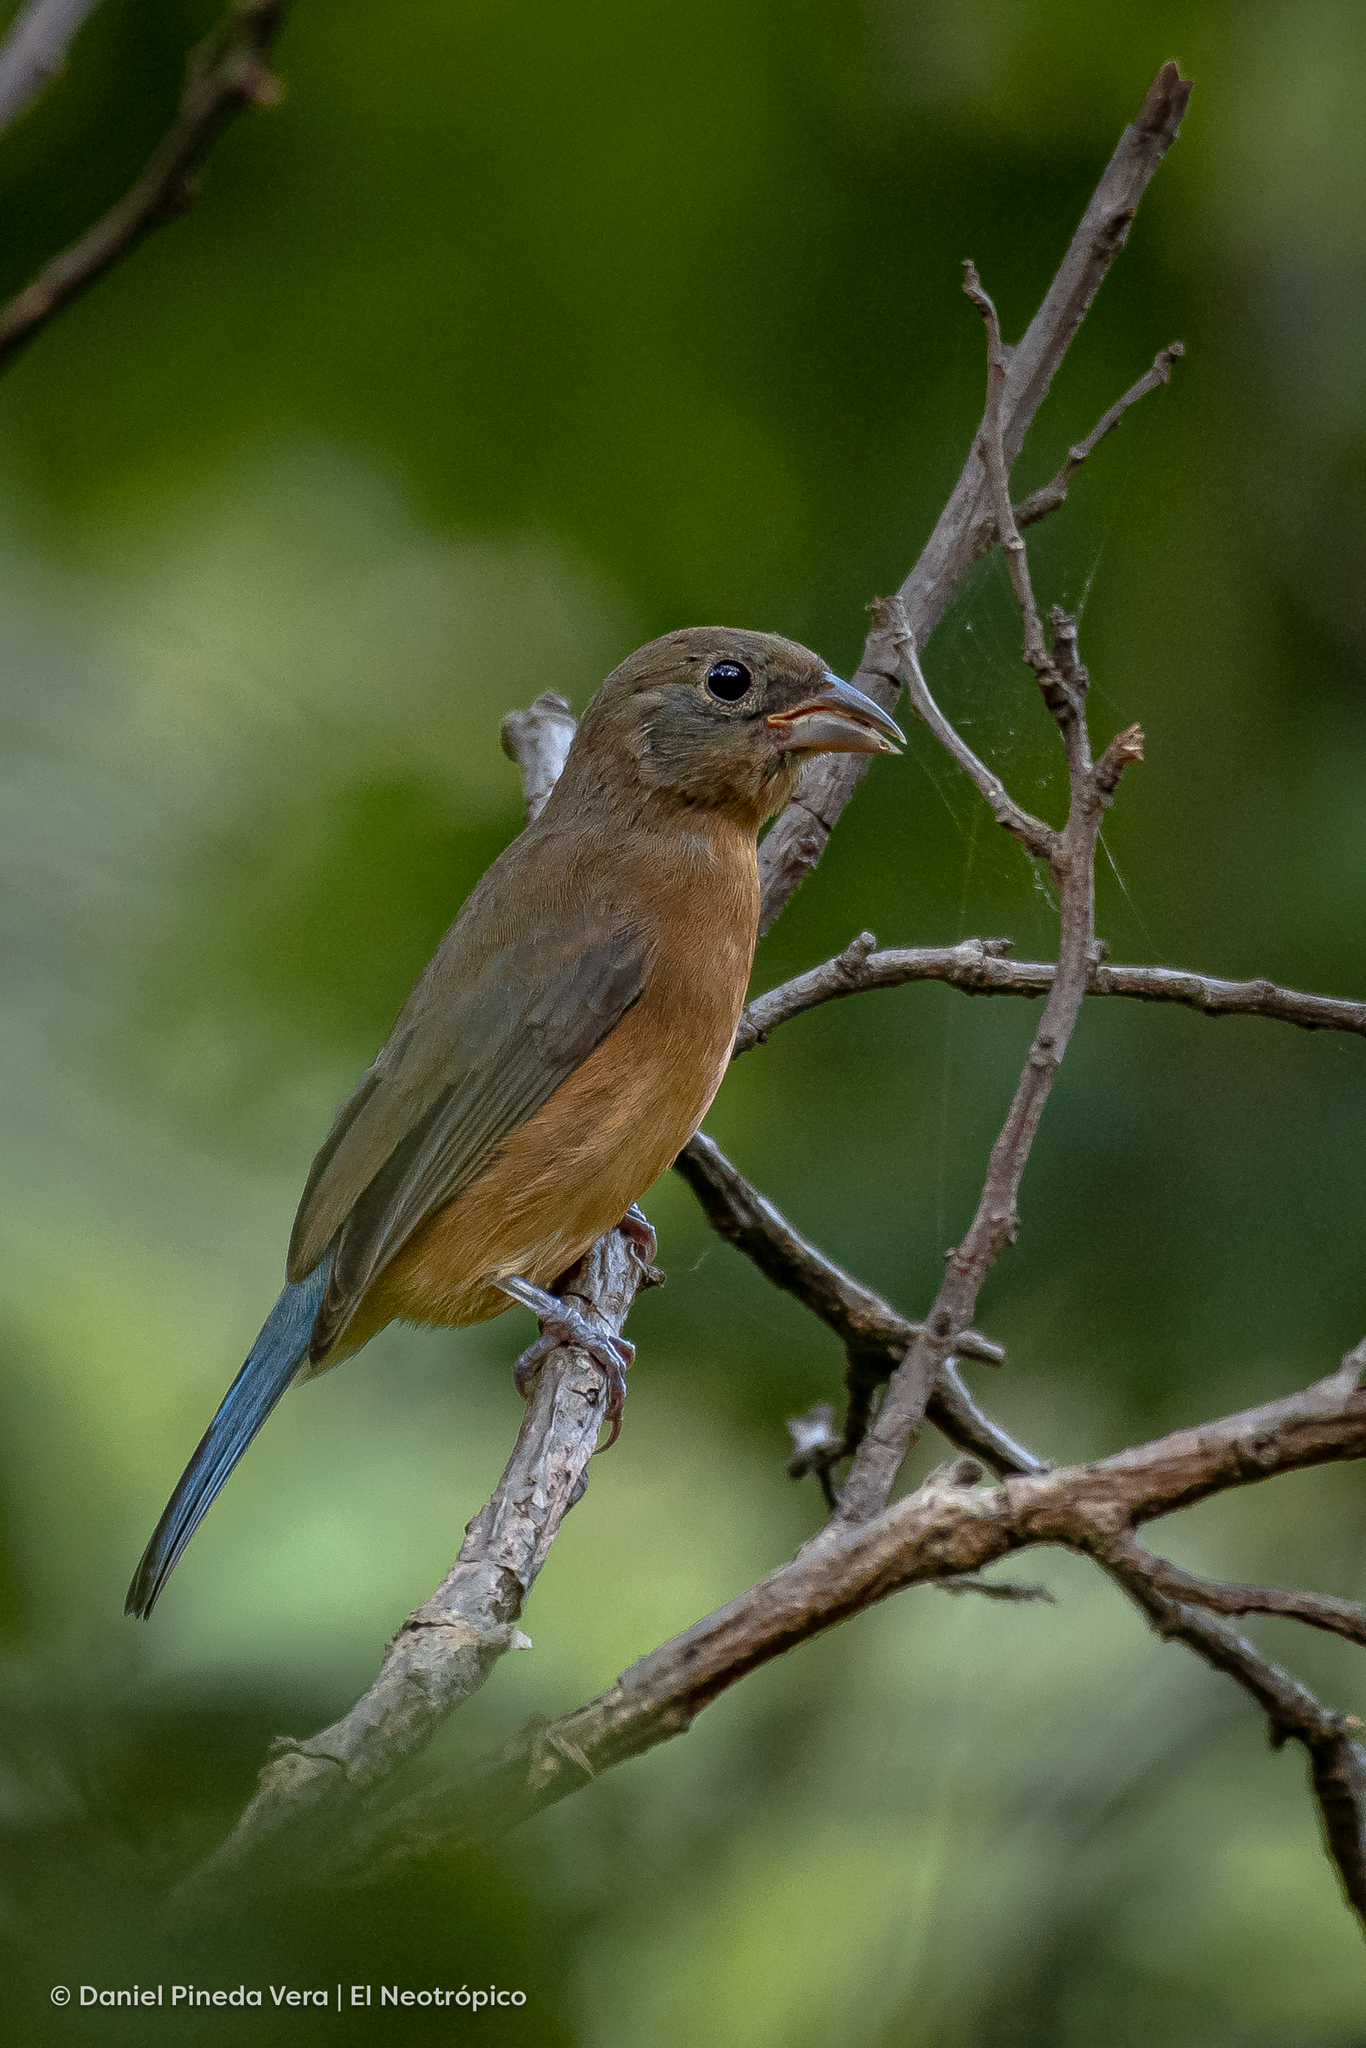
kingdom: Animalia
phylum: Chordata
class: Aves
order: Passeriformes
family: Cardinalidae
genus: Passerina
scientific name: Passerina rositae
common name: Rose-bellied bunting
